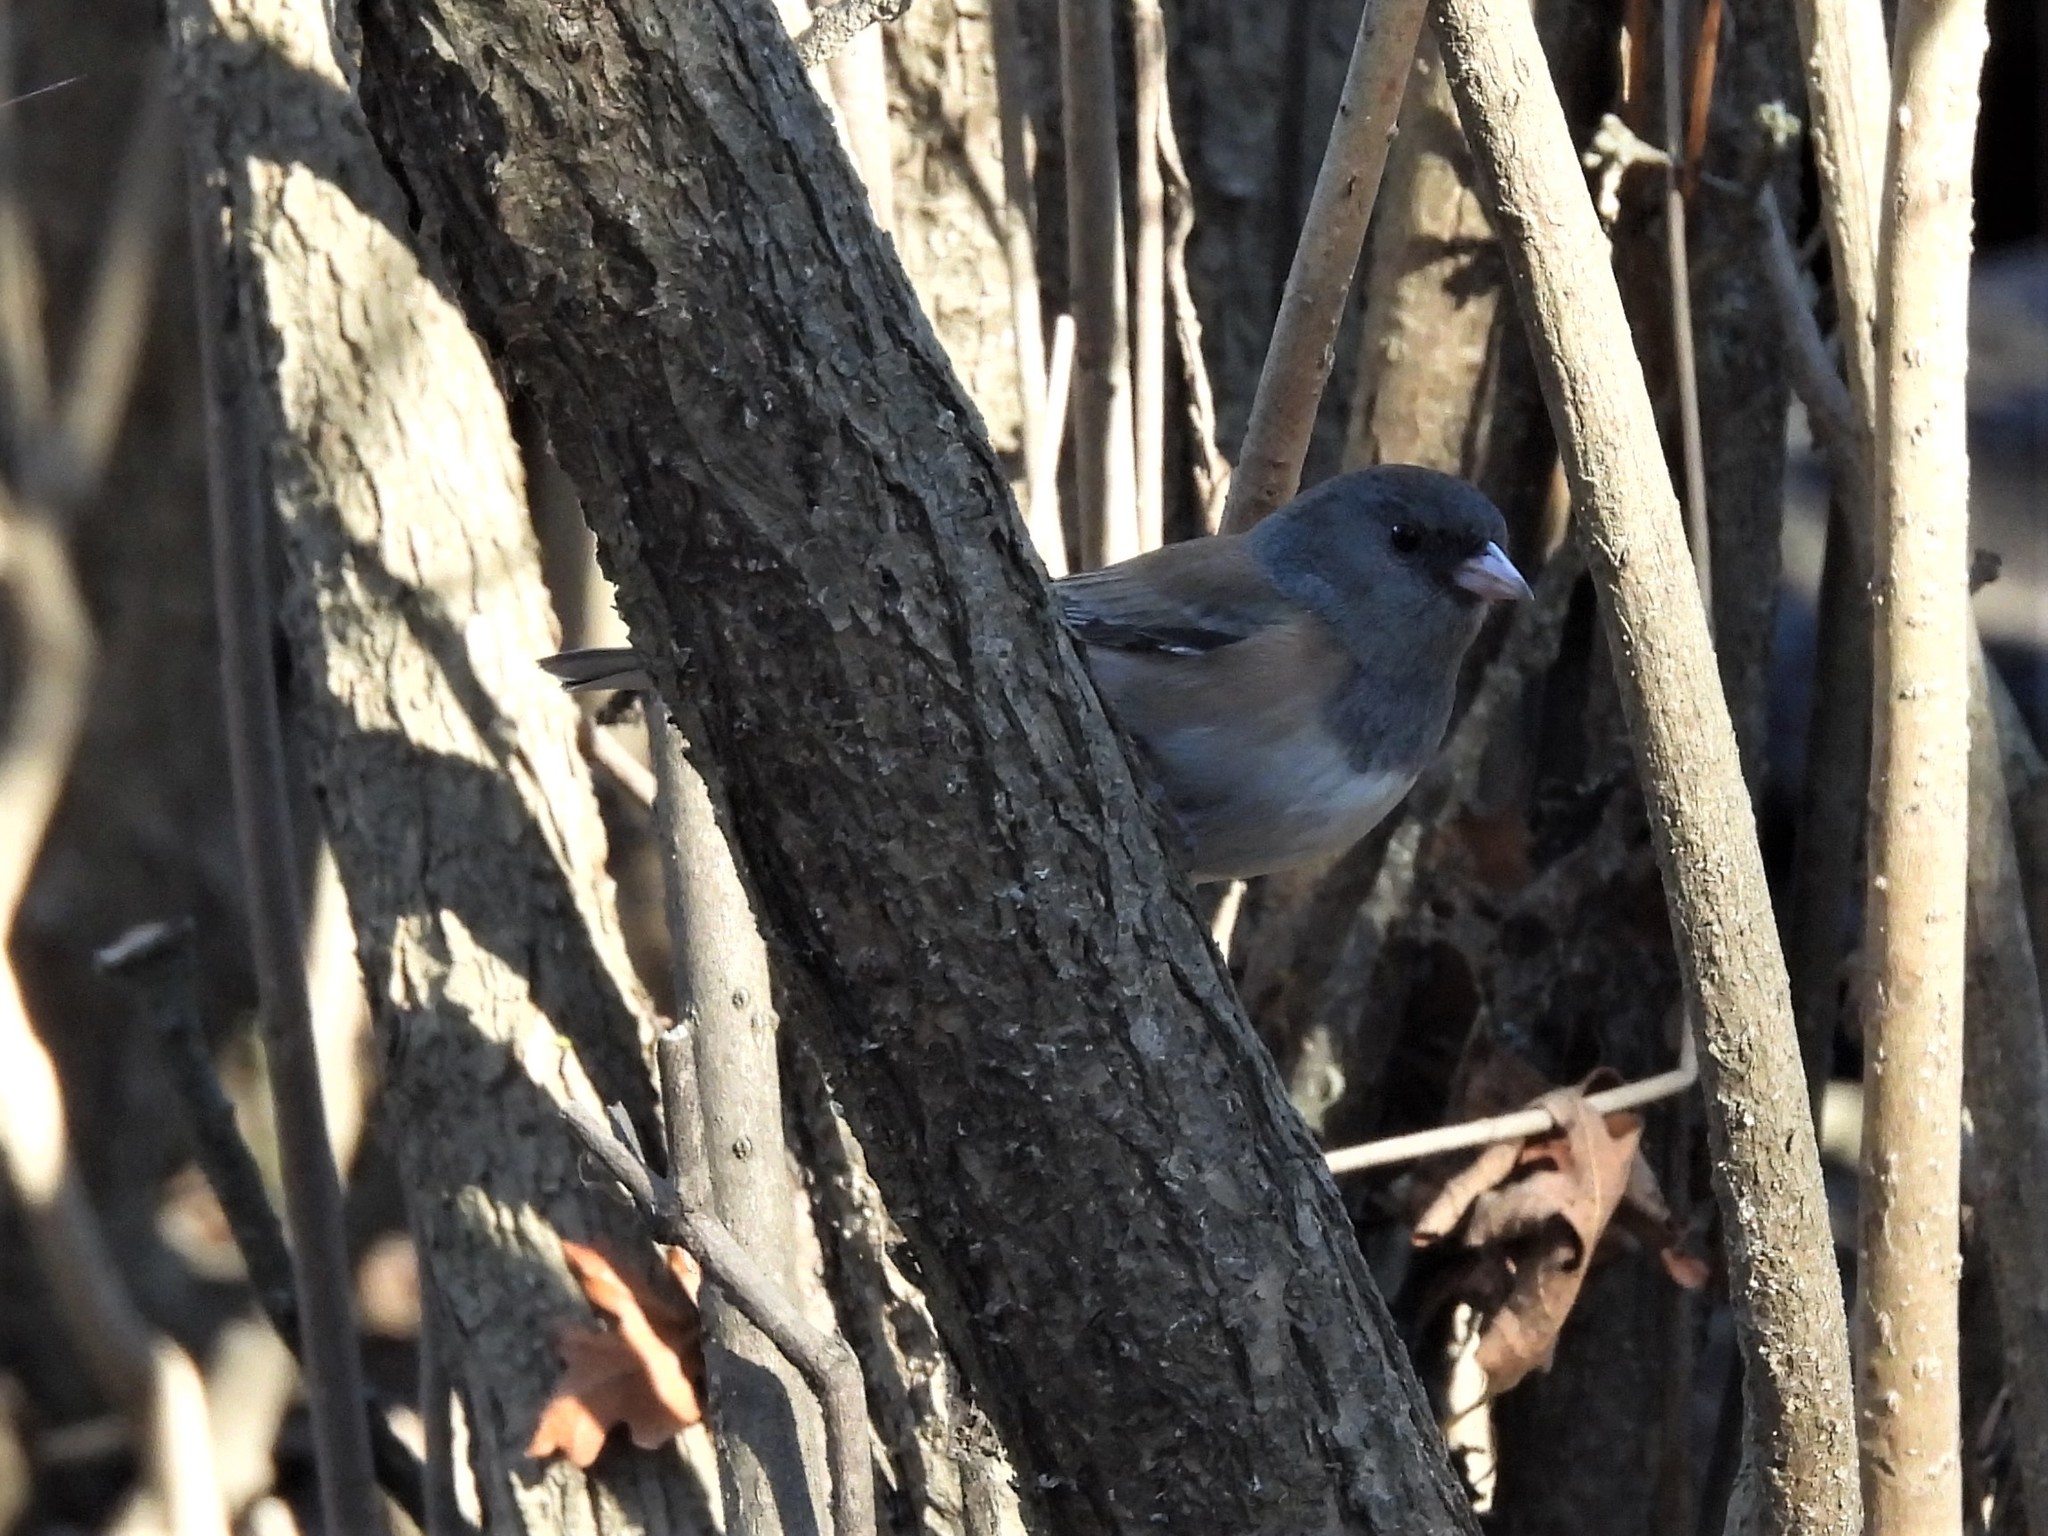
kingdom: Animalia
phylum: Chordata
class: Aves
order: Passeriformes
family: Passerellidae
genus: Junco
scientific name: Junco hyemalis
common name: Dark-eyed junco
